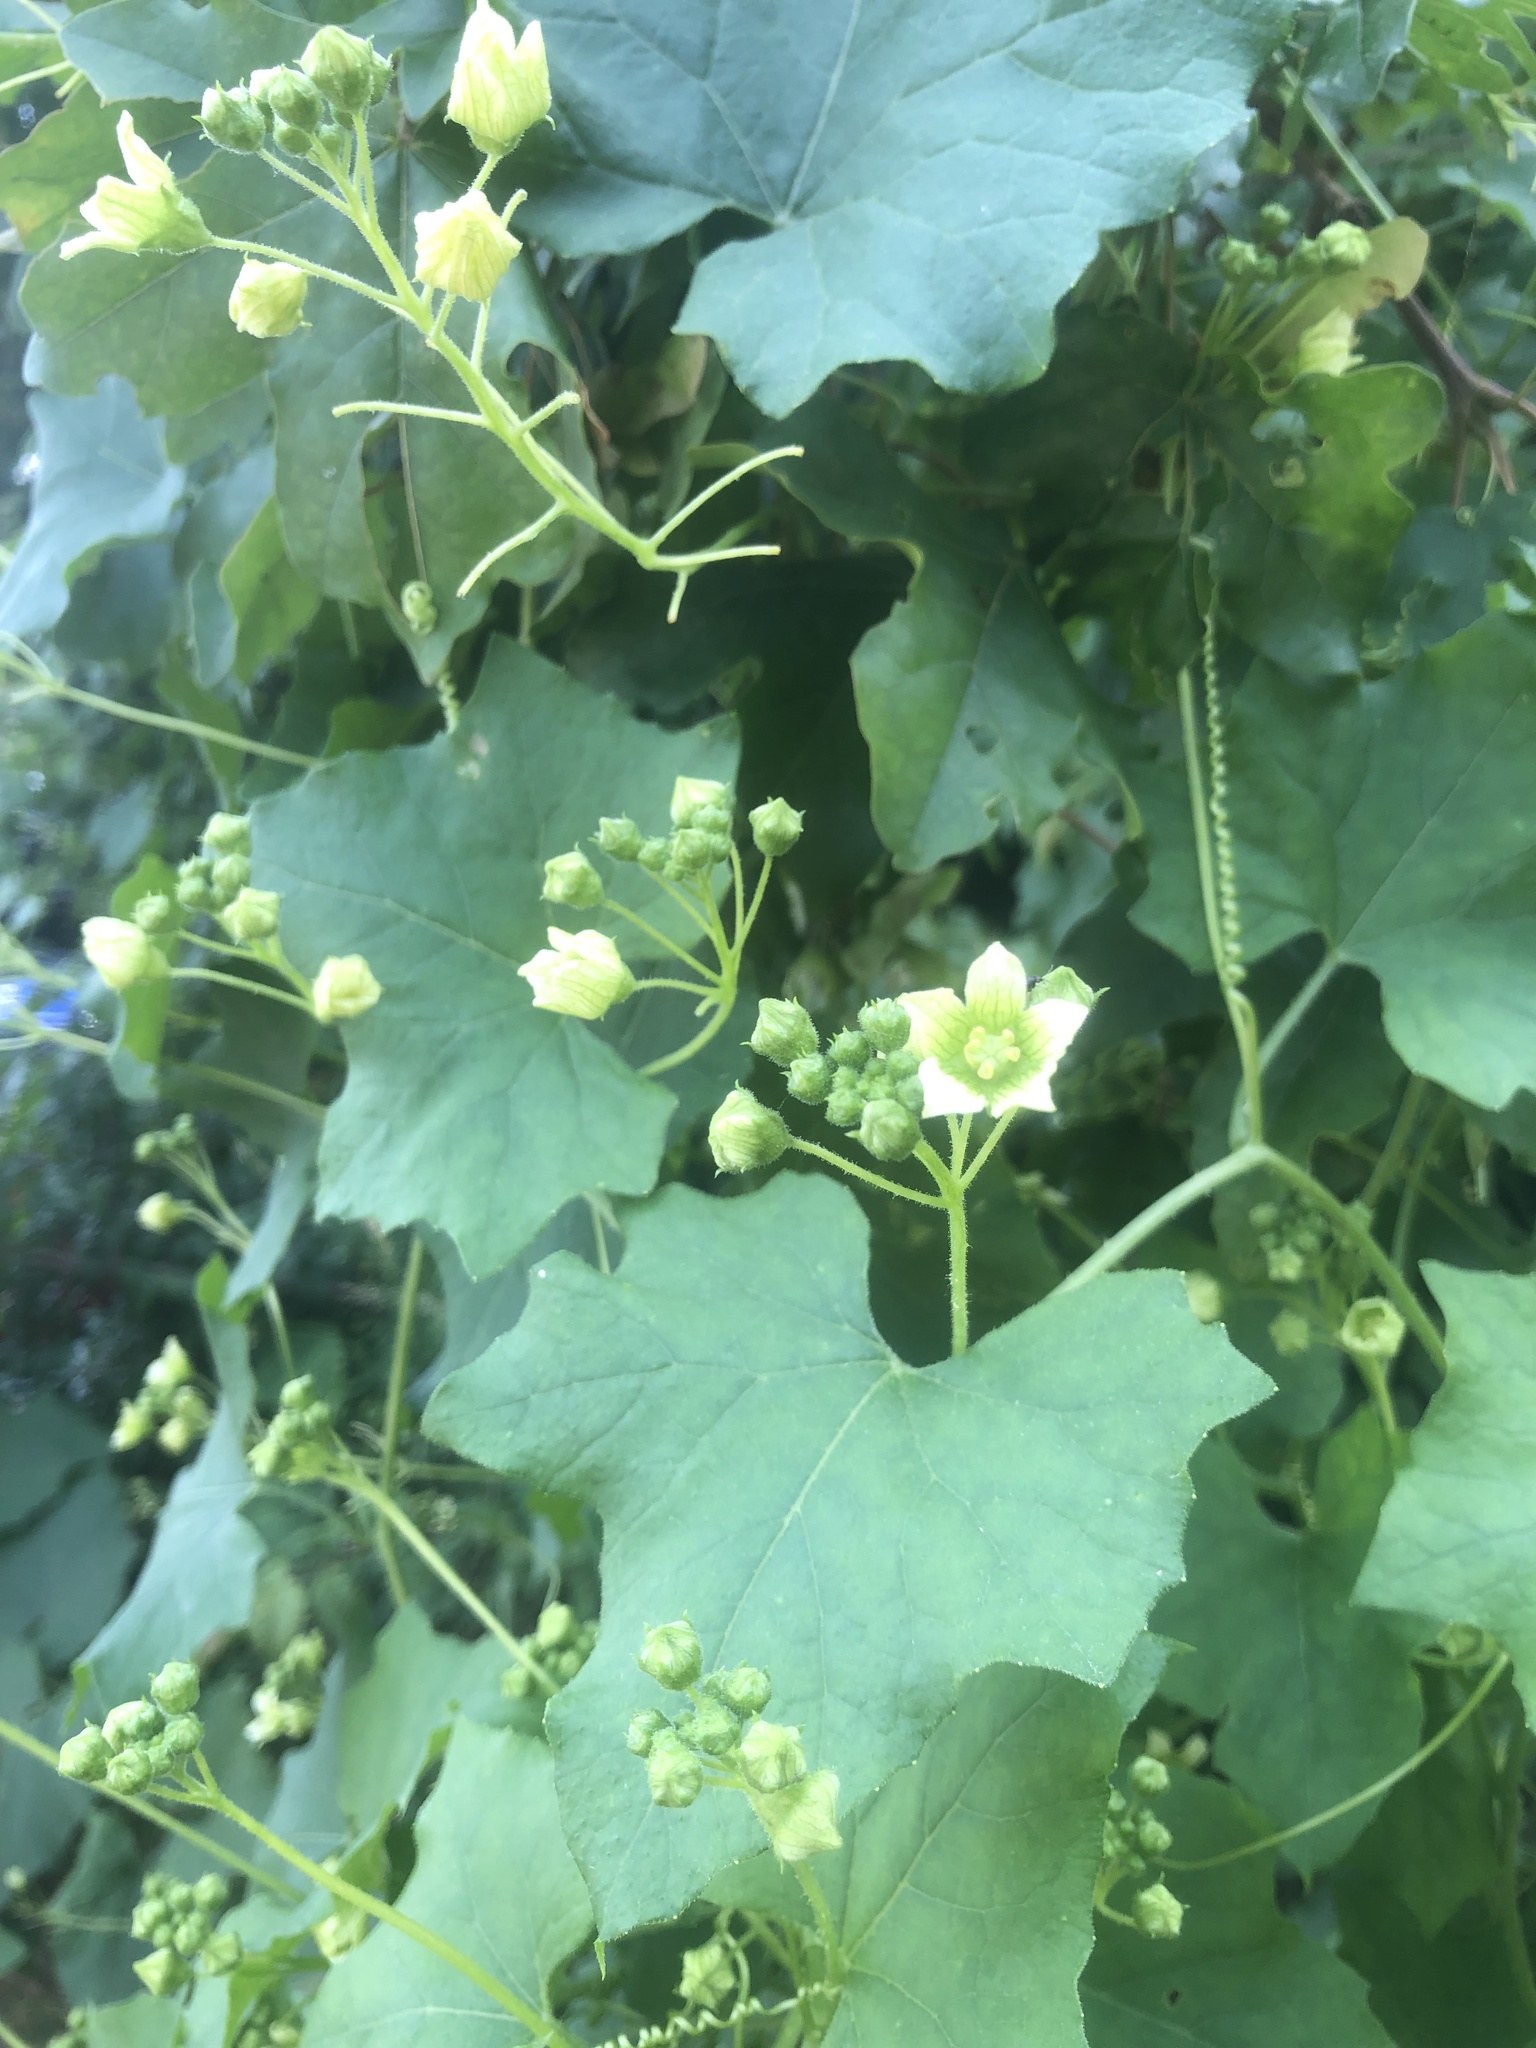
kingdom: Plantae
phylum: Tracheophyta
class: Magnoliopsida
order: Cucurbitales
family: Cucurbitaceae
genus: Bryonia
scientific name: Bryonia dioica
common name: White bryony
